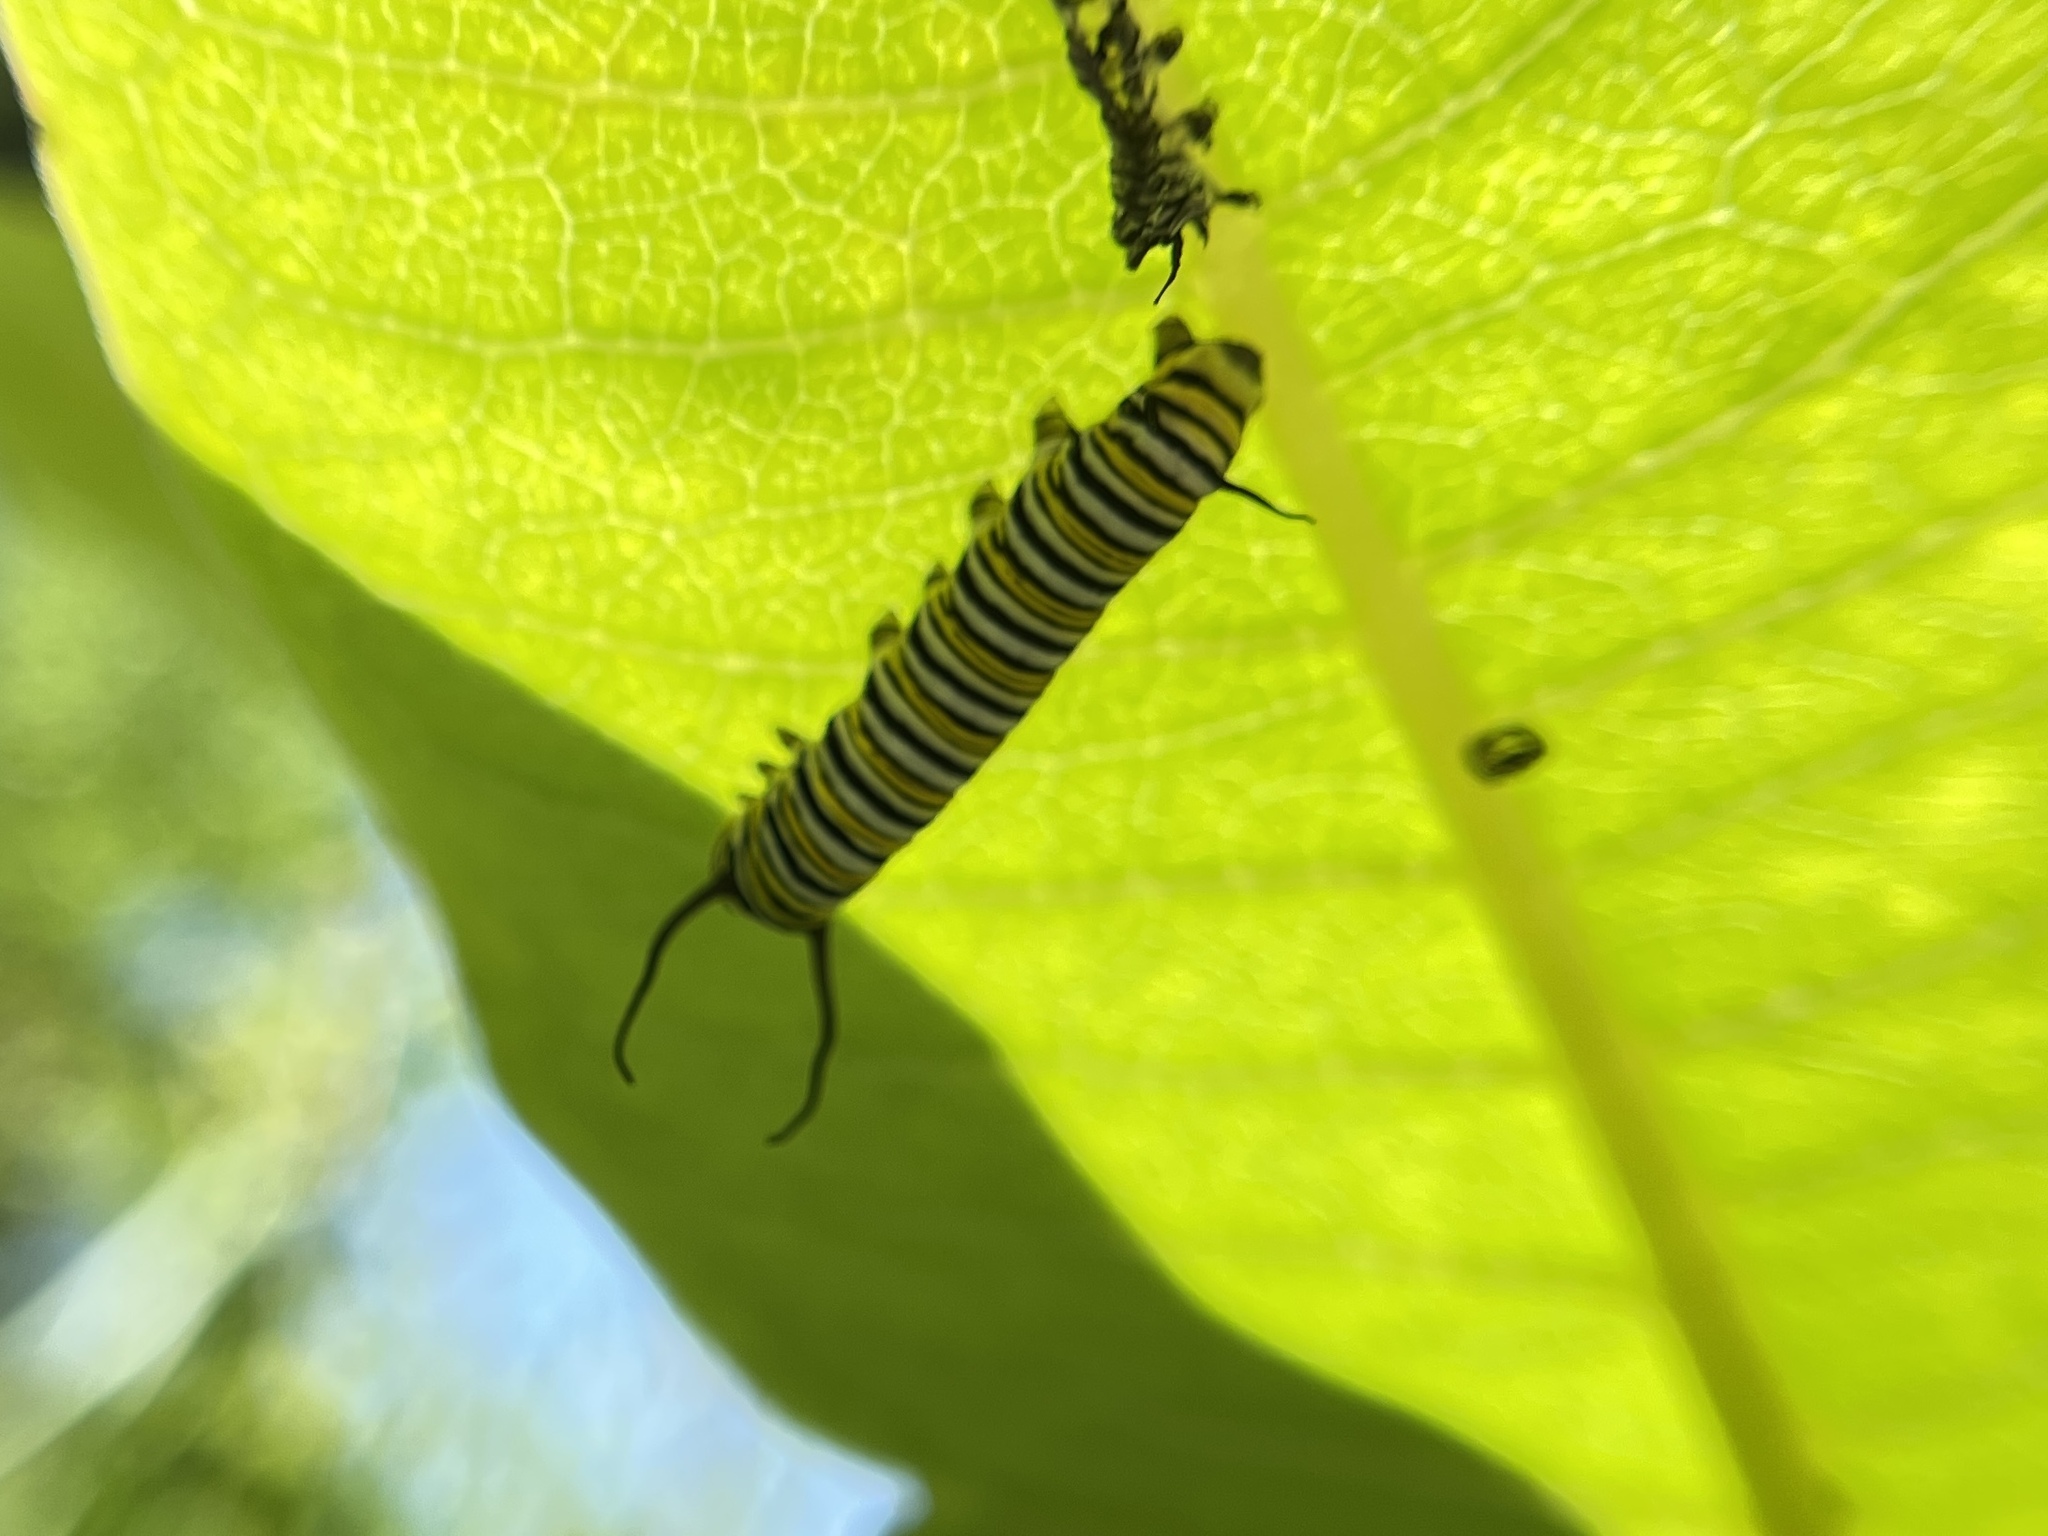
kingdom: Animalia
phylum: Arthropoda
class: Insecta
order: Lepidoptera
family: Nymphalidae
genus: Danaus
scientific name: Danaus plexippus
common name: Monarch
